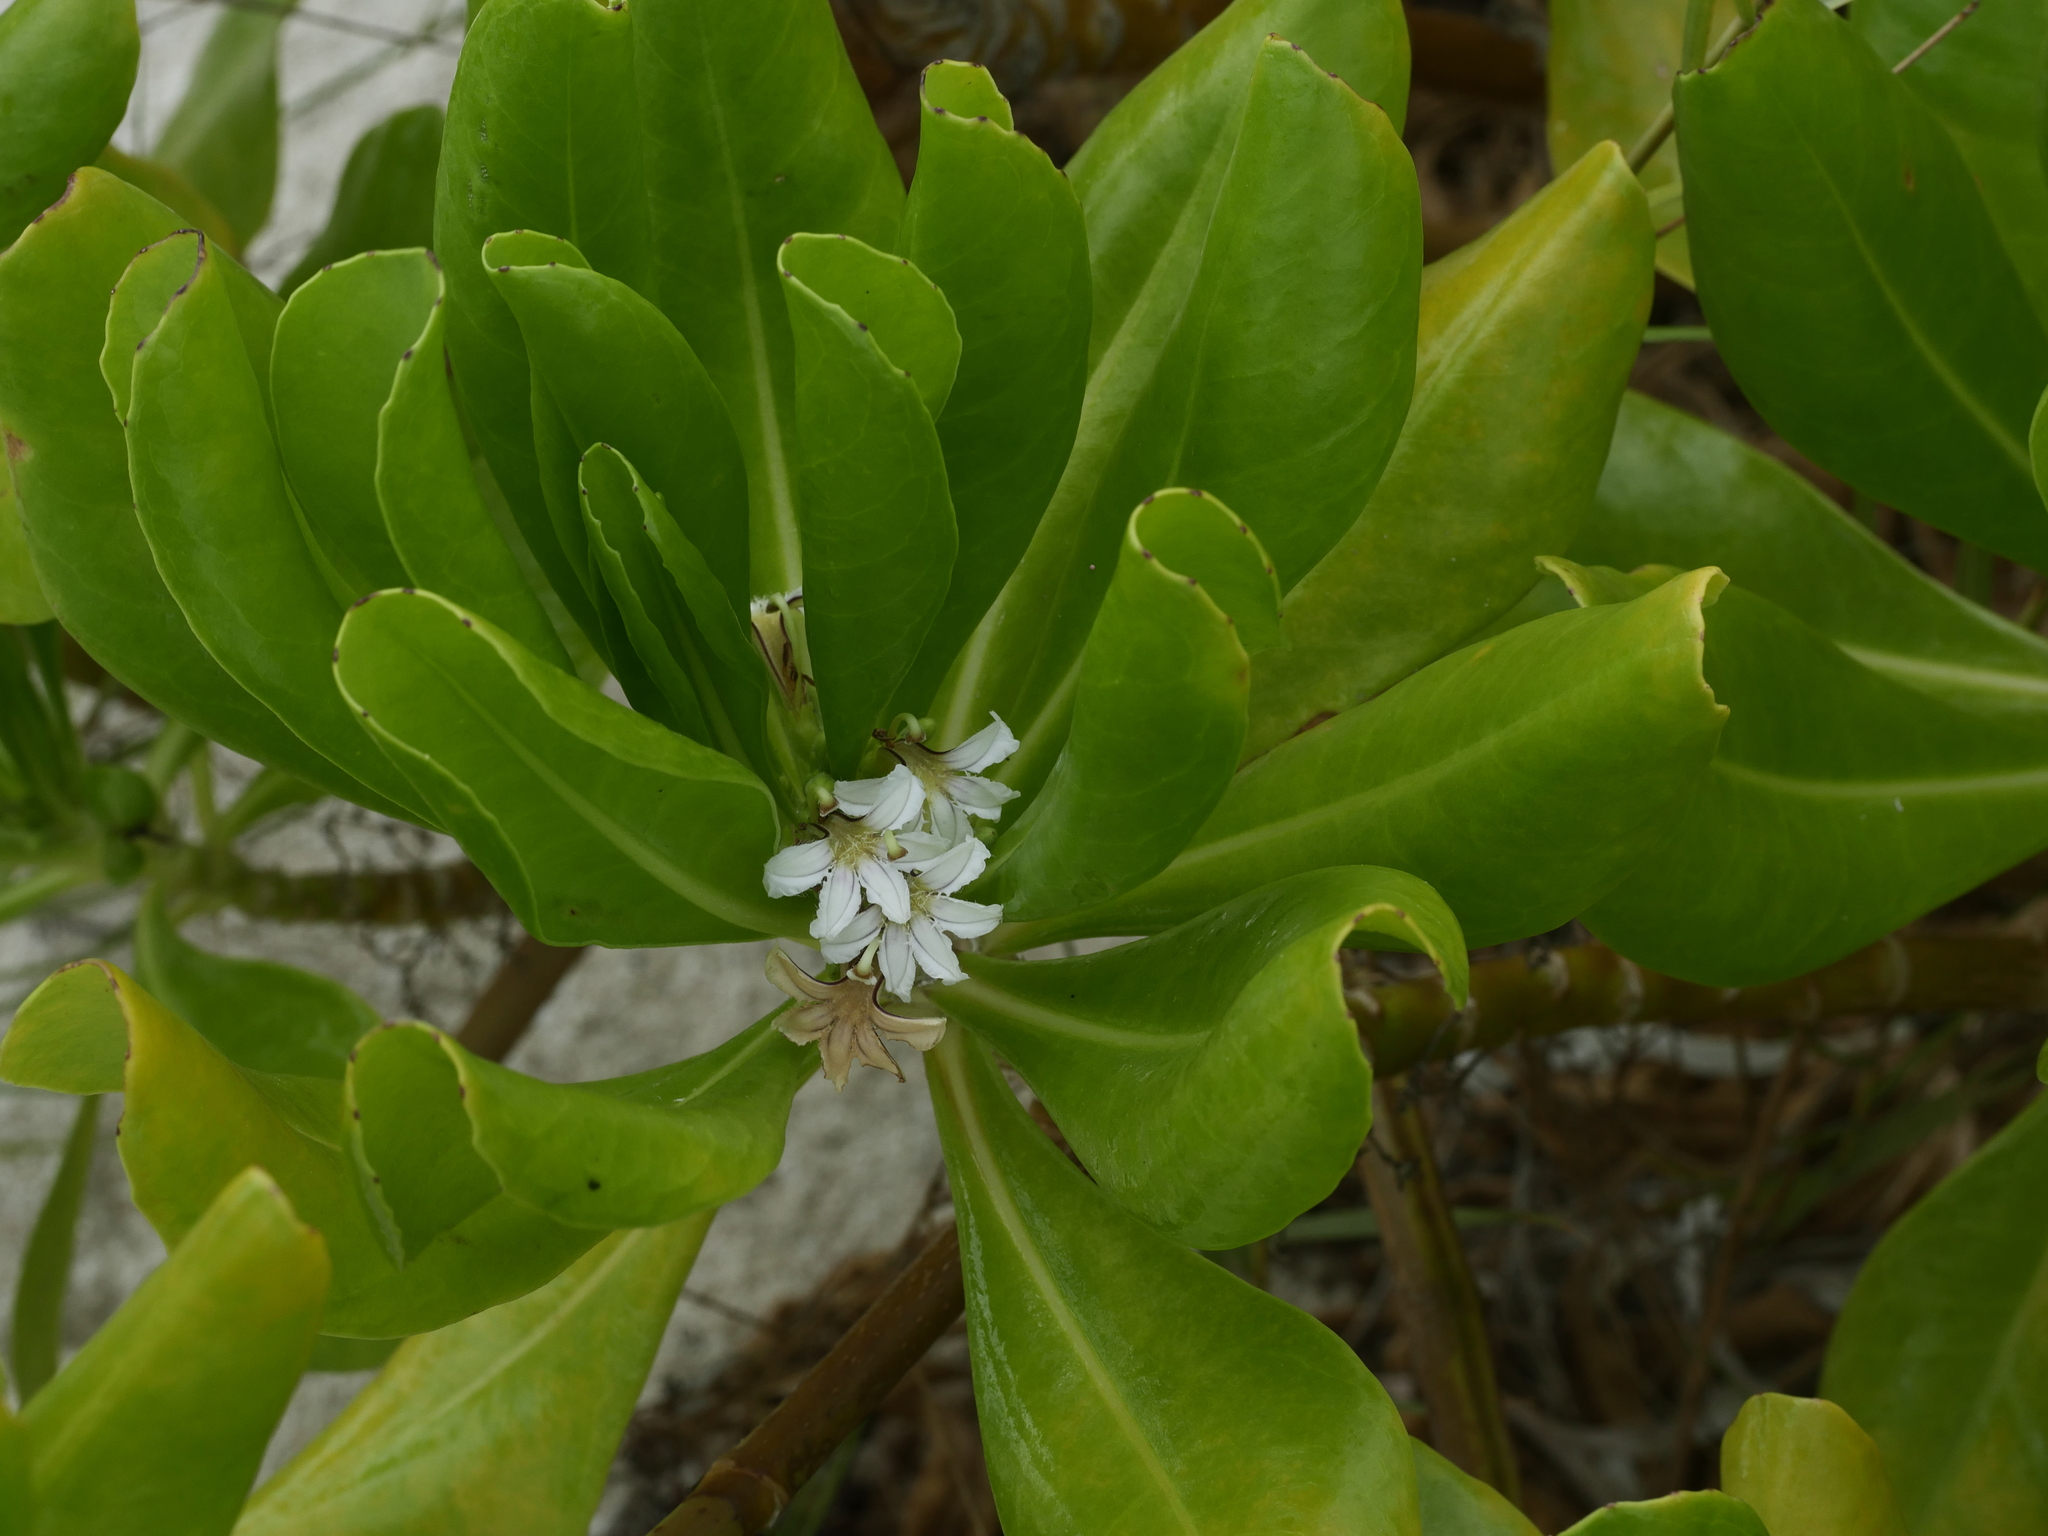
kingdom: Plantae
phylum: Tracheophyta
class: Magnoliopsida
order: Asterales
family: Goodeniaceae
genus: Scaevola
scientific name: Scaevola taccada
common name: Sea lettucetree
